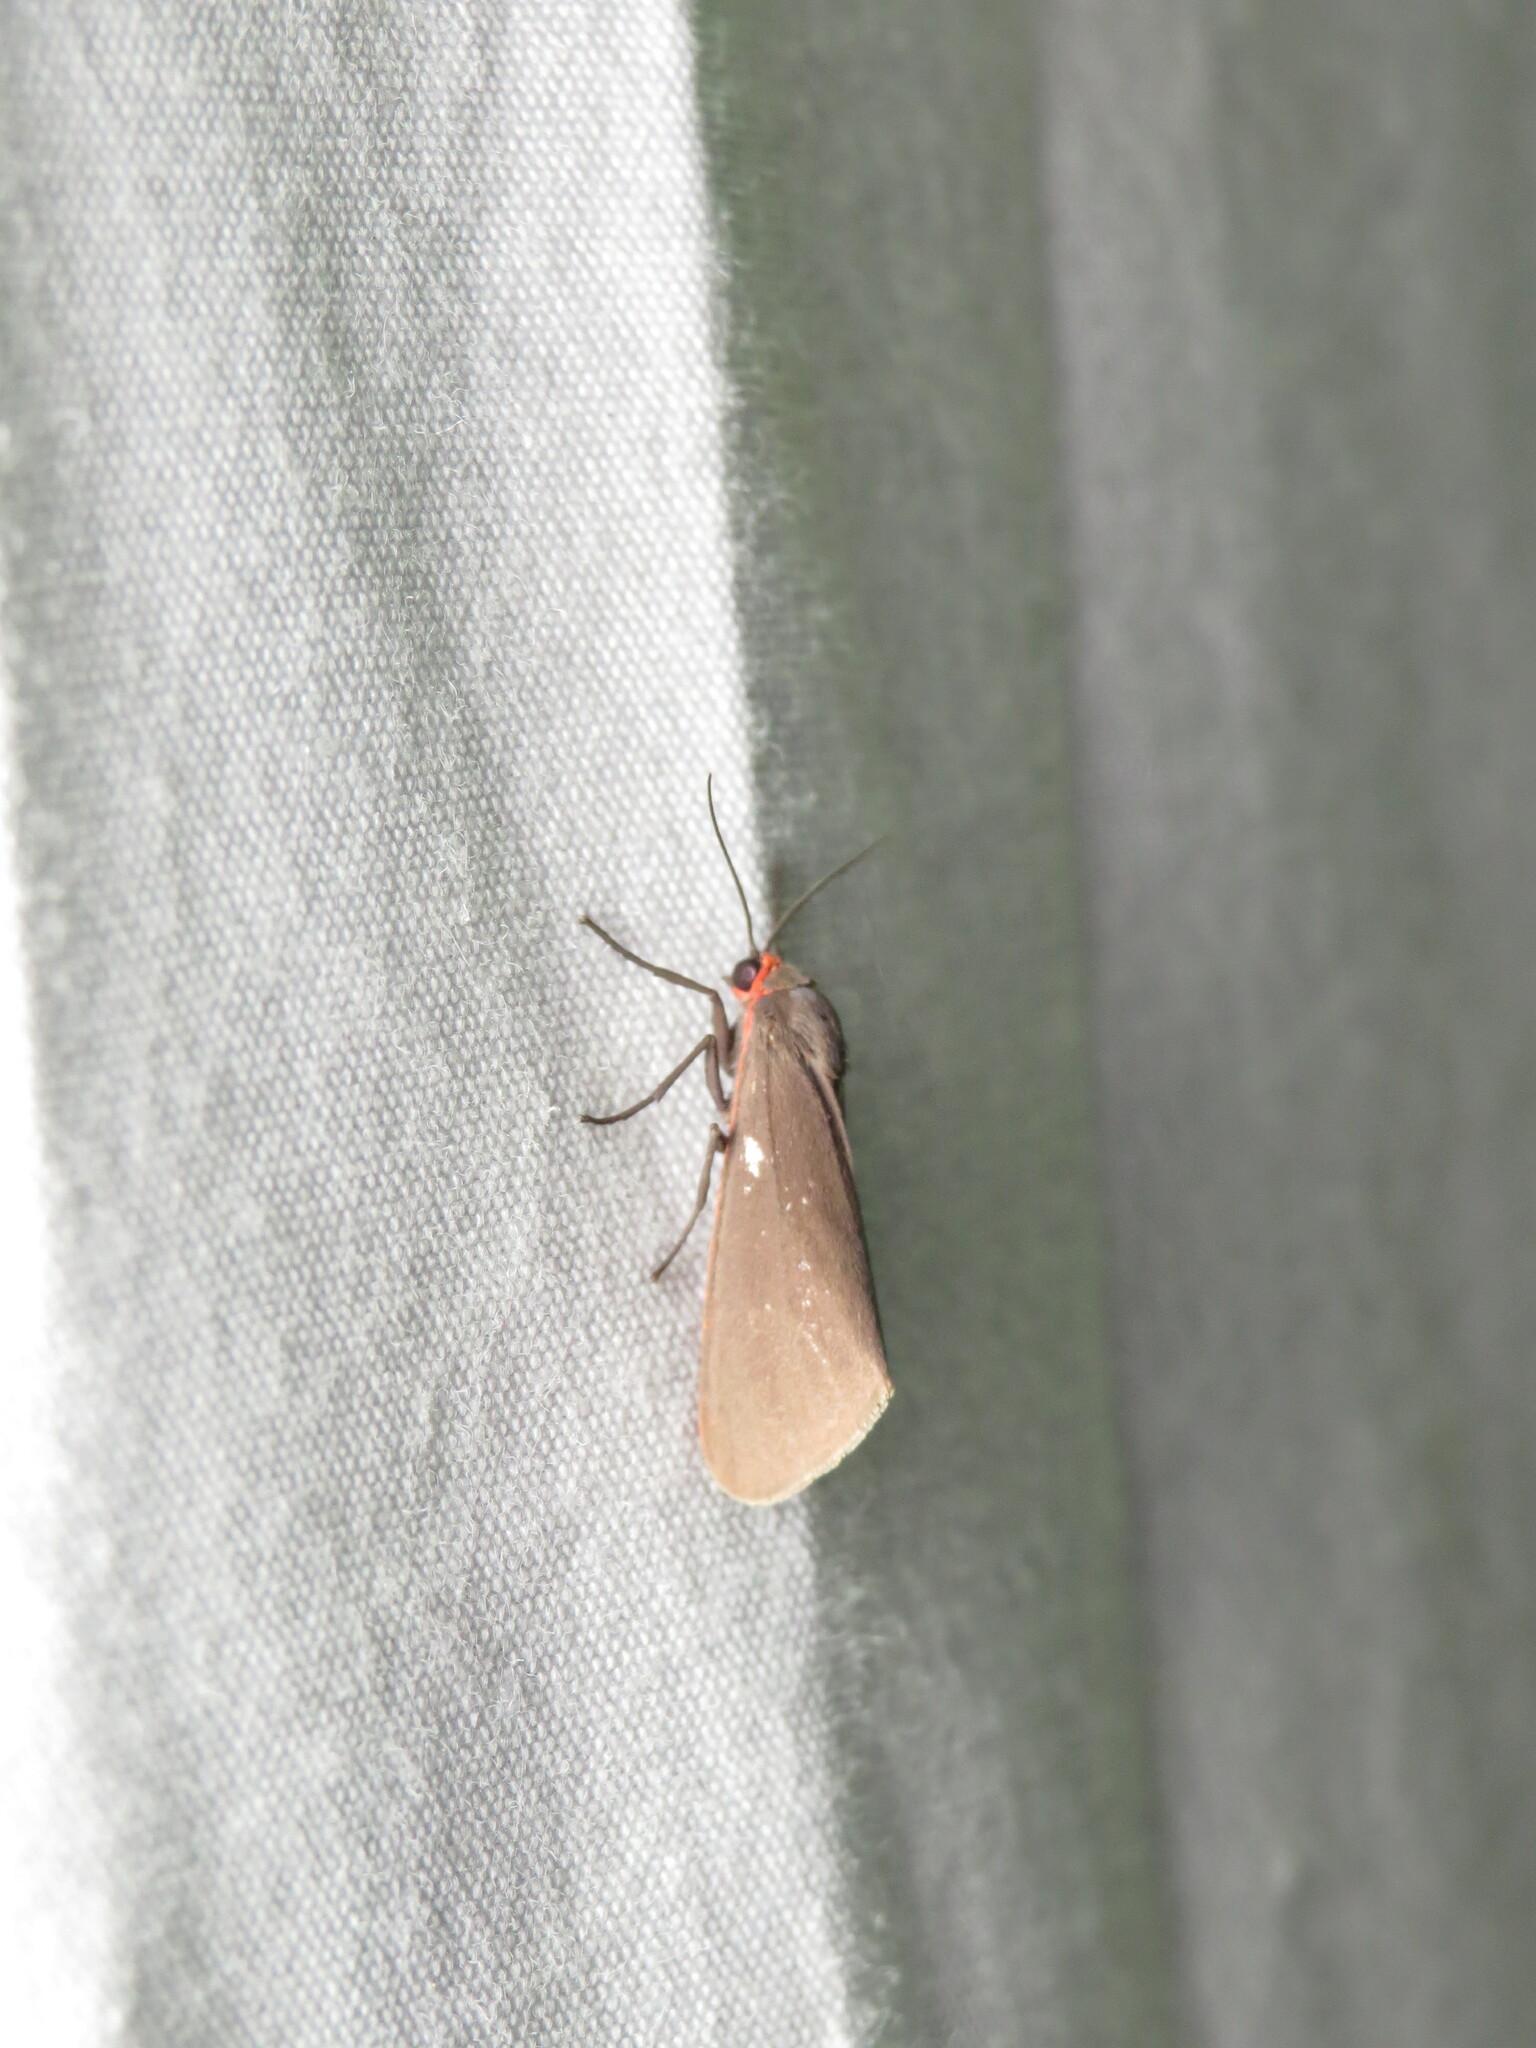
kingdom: Animalia
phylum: Arthropoda
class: Insecta
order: Lepidoptera
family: Erebidae
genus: Virbia
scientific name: Virbia laeta
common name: Joyful holomelina moth
